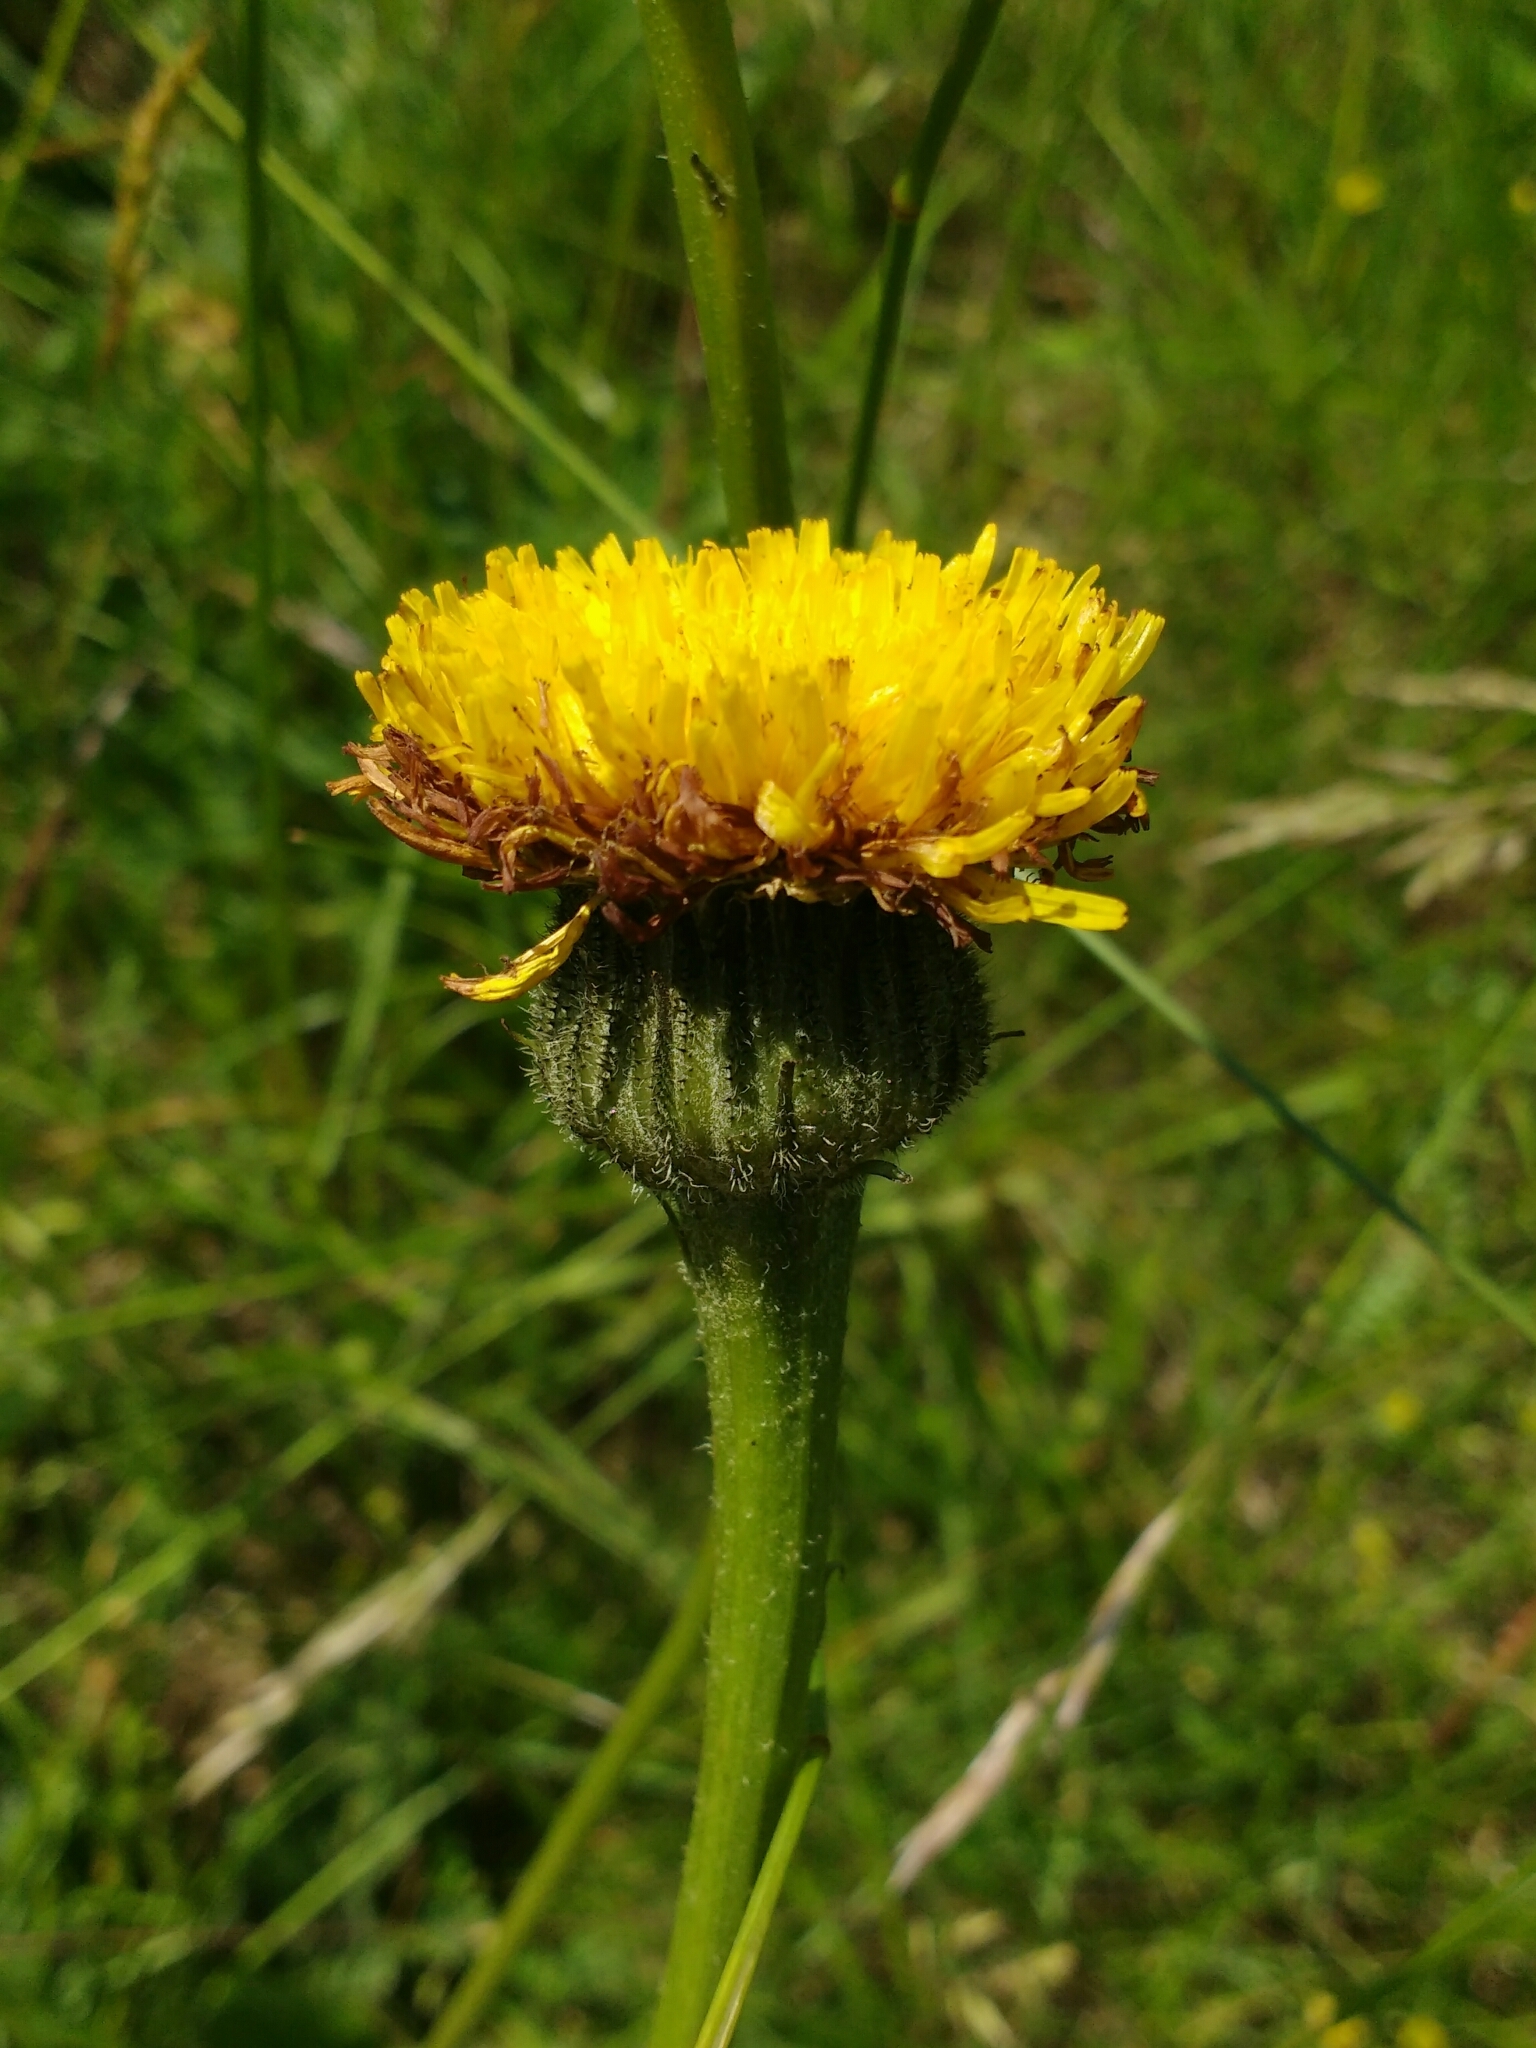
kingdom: Plantae
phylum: Tracheophyta
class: Magnoliopsida
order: Asterales
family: Asteraceae
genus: Trommsdorffia
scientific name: Trommsdorffia maculata
